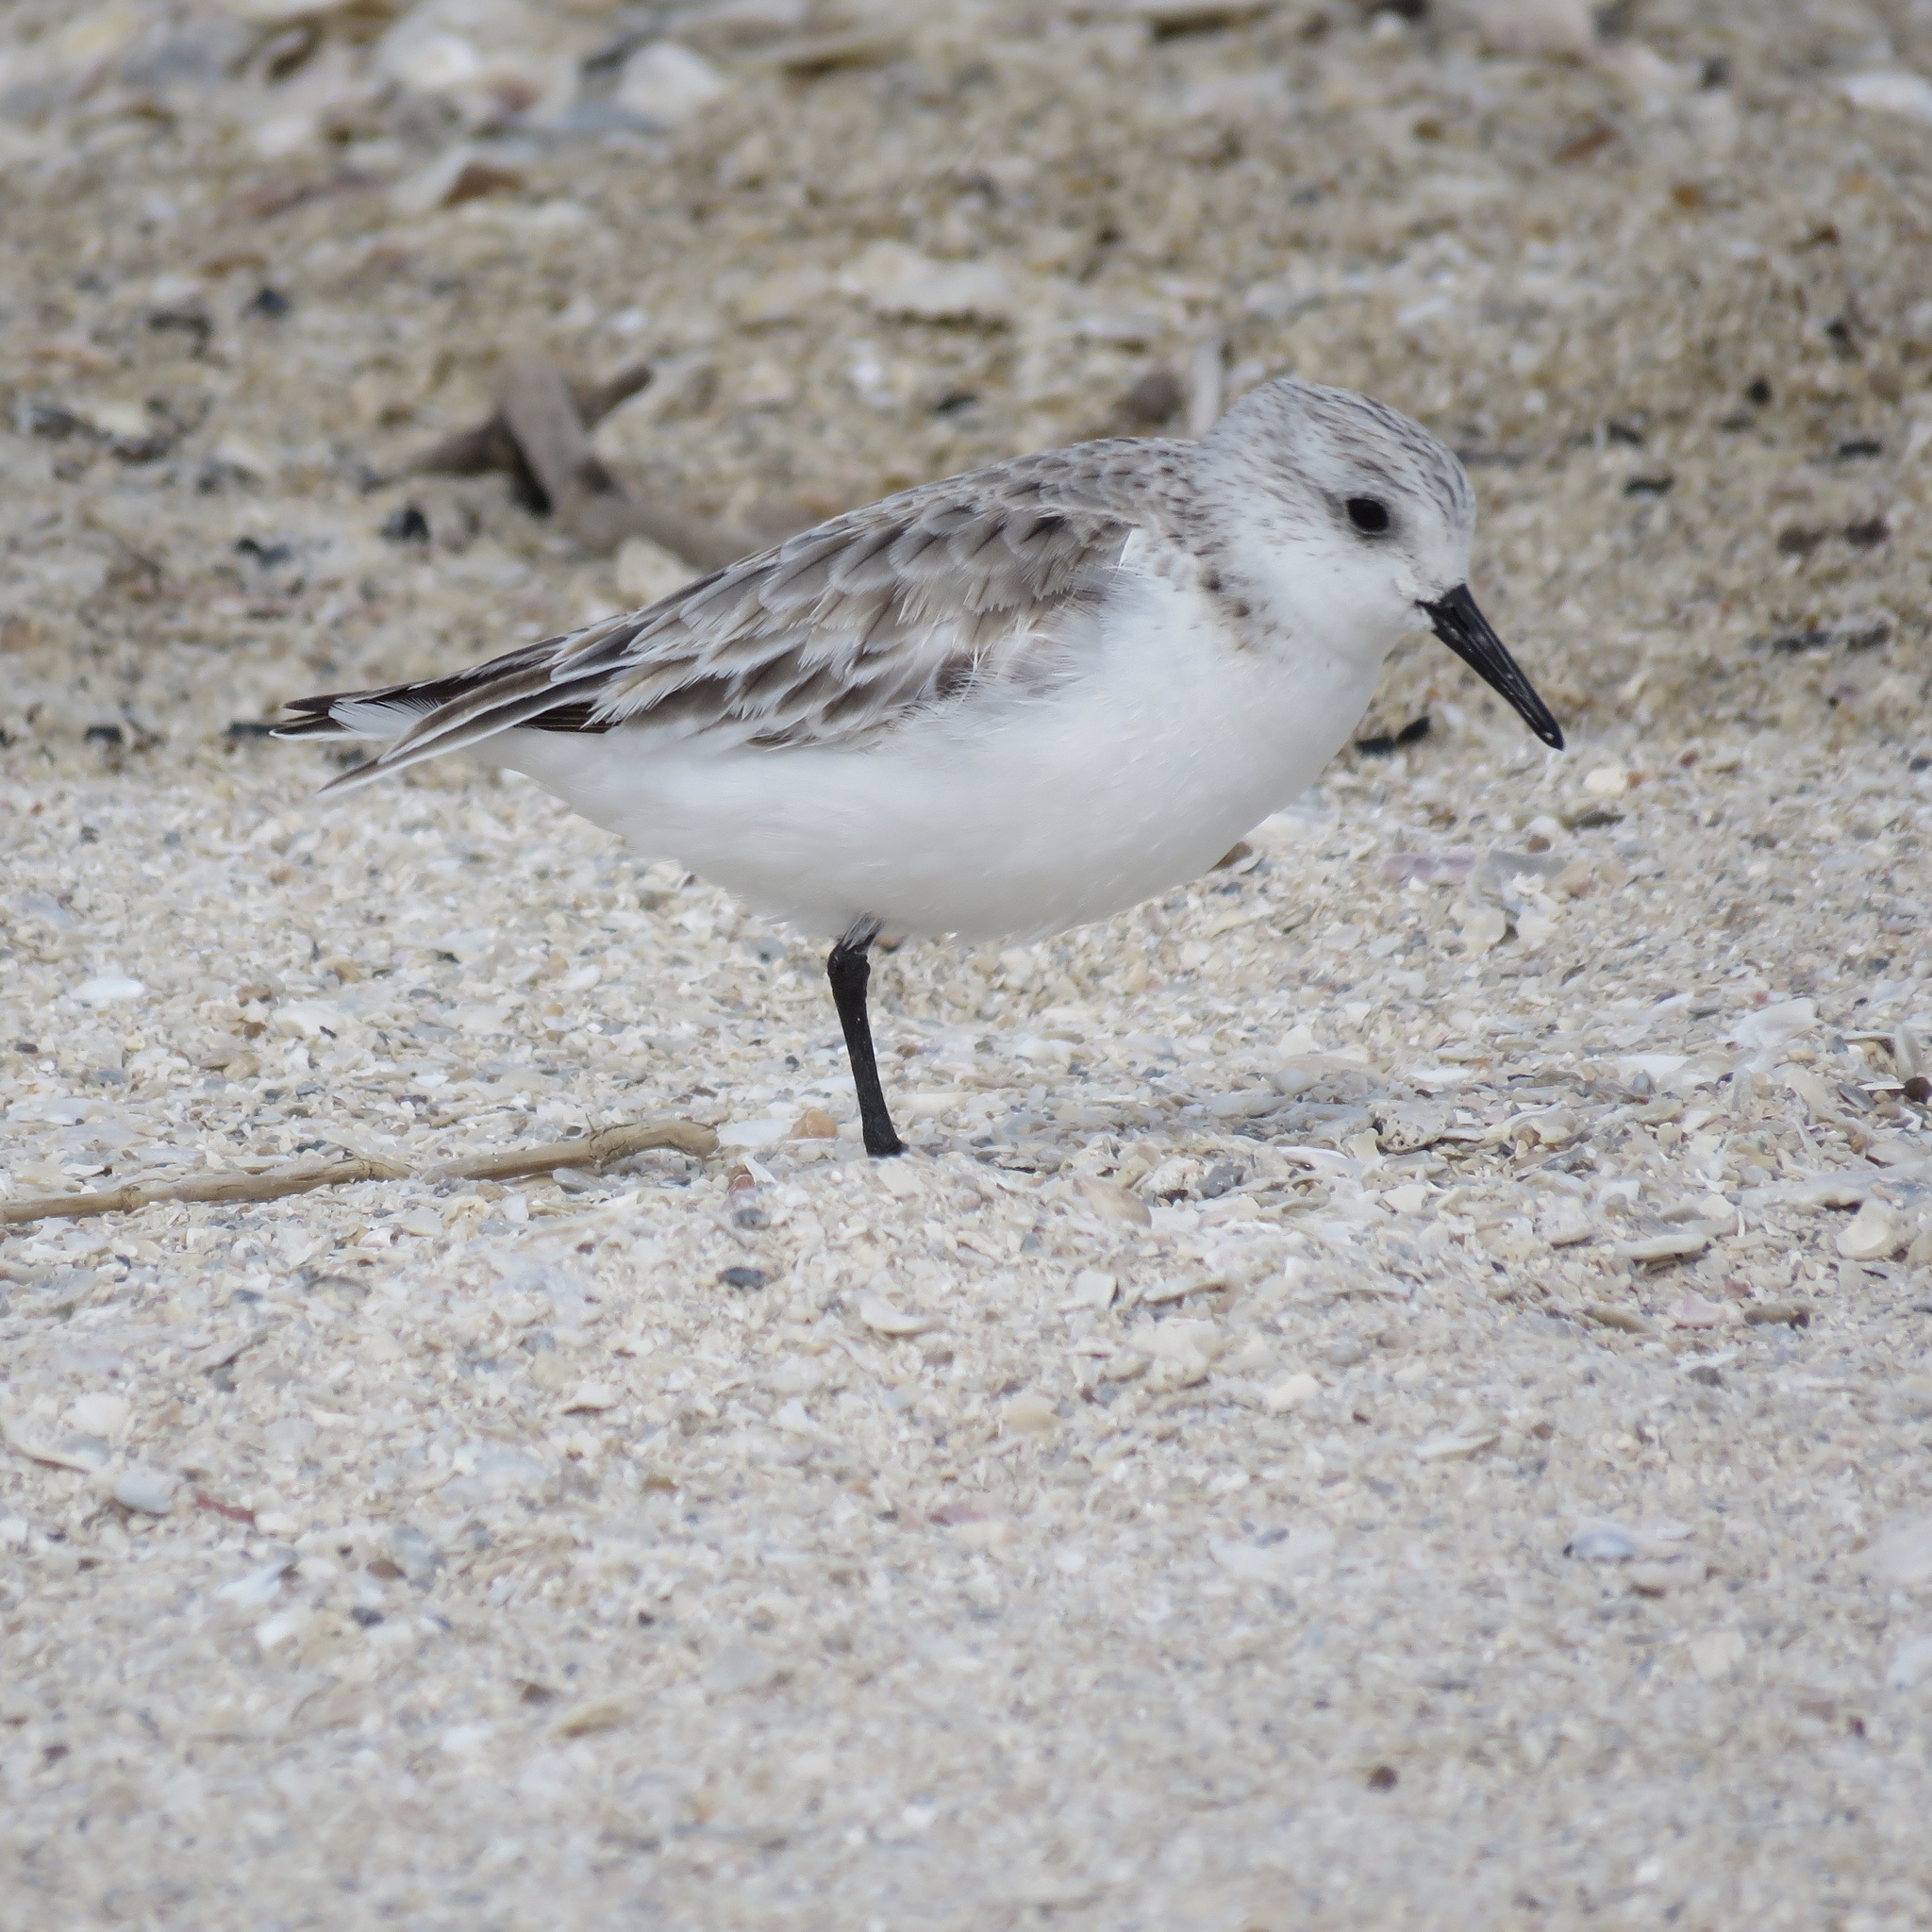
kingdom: Animalia
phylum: Chordata
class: Aves
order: Charadriiformes
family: Scolopacidae
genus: Calidris
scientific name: Calidris alba
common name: Sanderling
